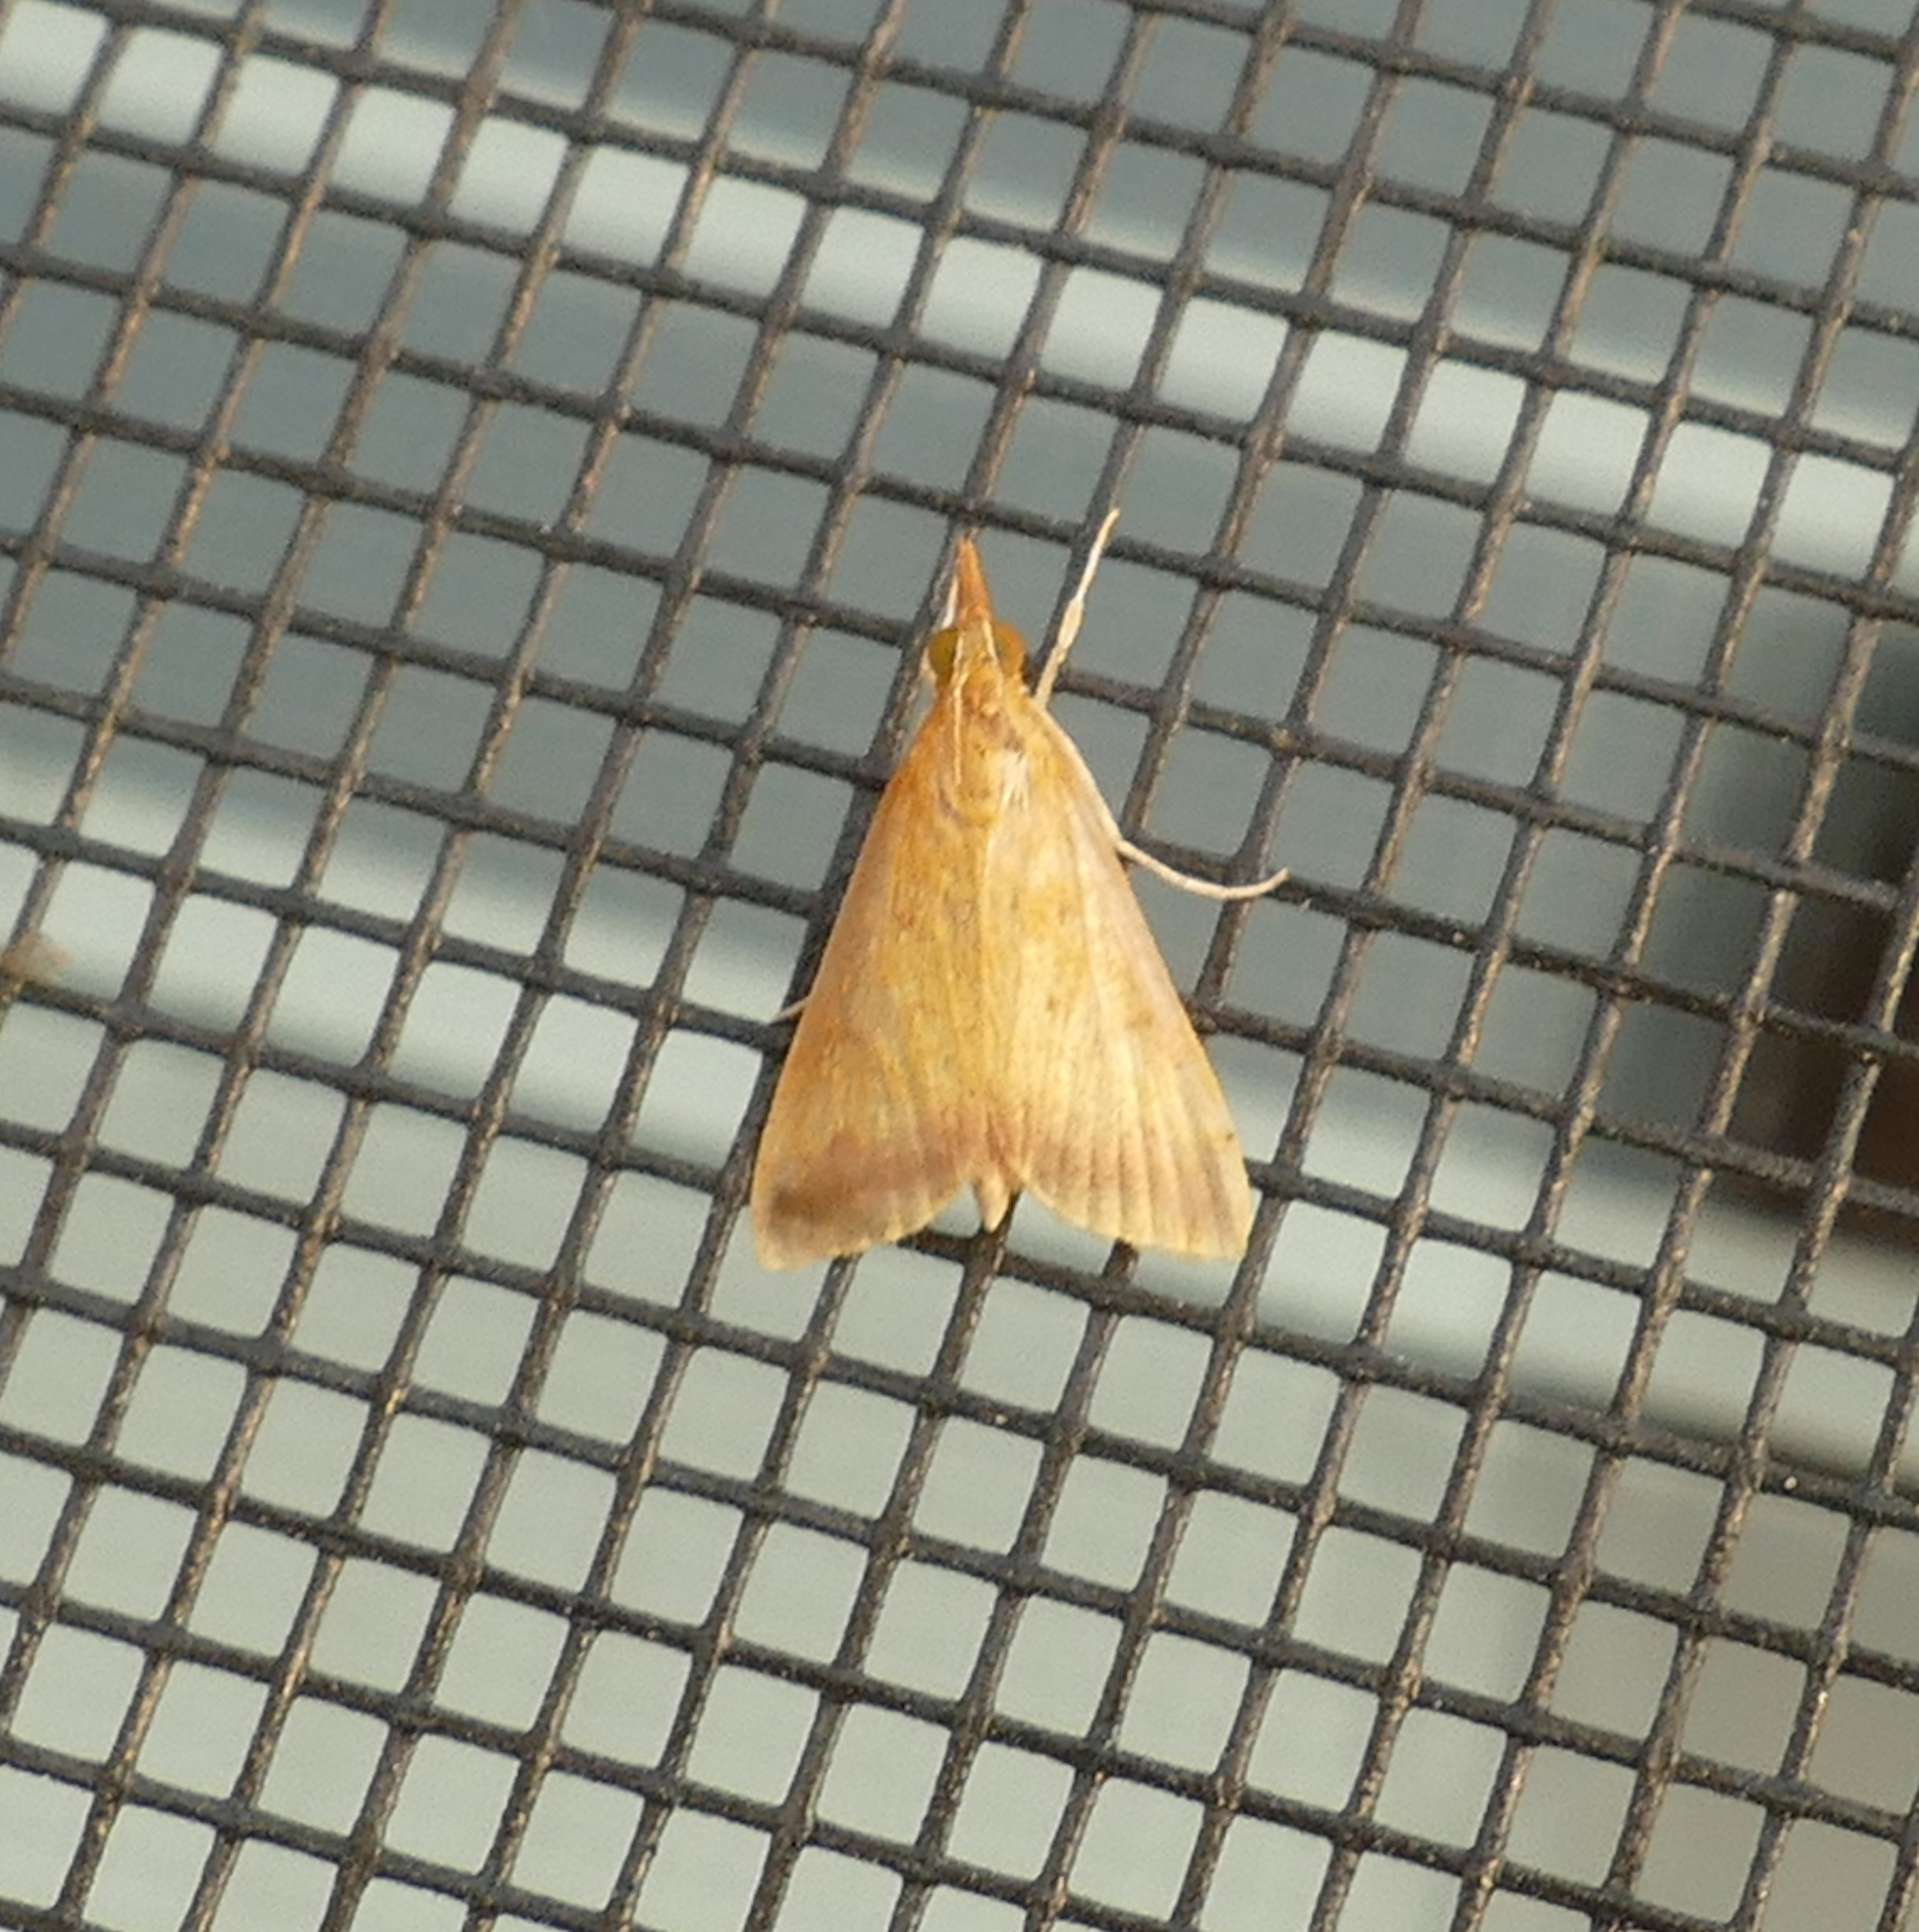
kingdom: Animalia
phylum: Arthropoda
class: Insecta
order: Lepidoptera
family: Crambidae
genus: Hyalorista
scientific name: Hyalorista taeniolalis
